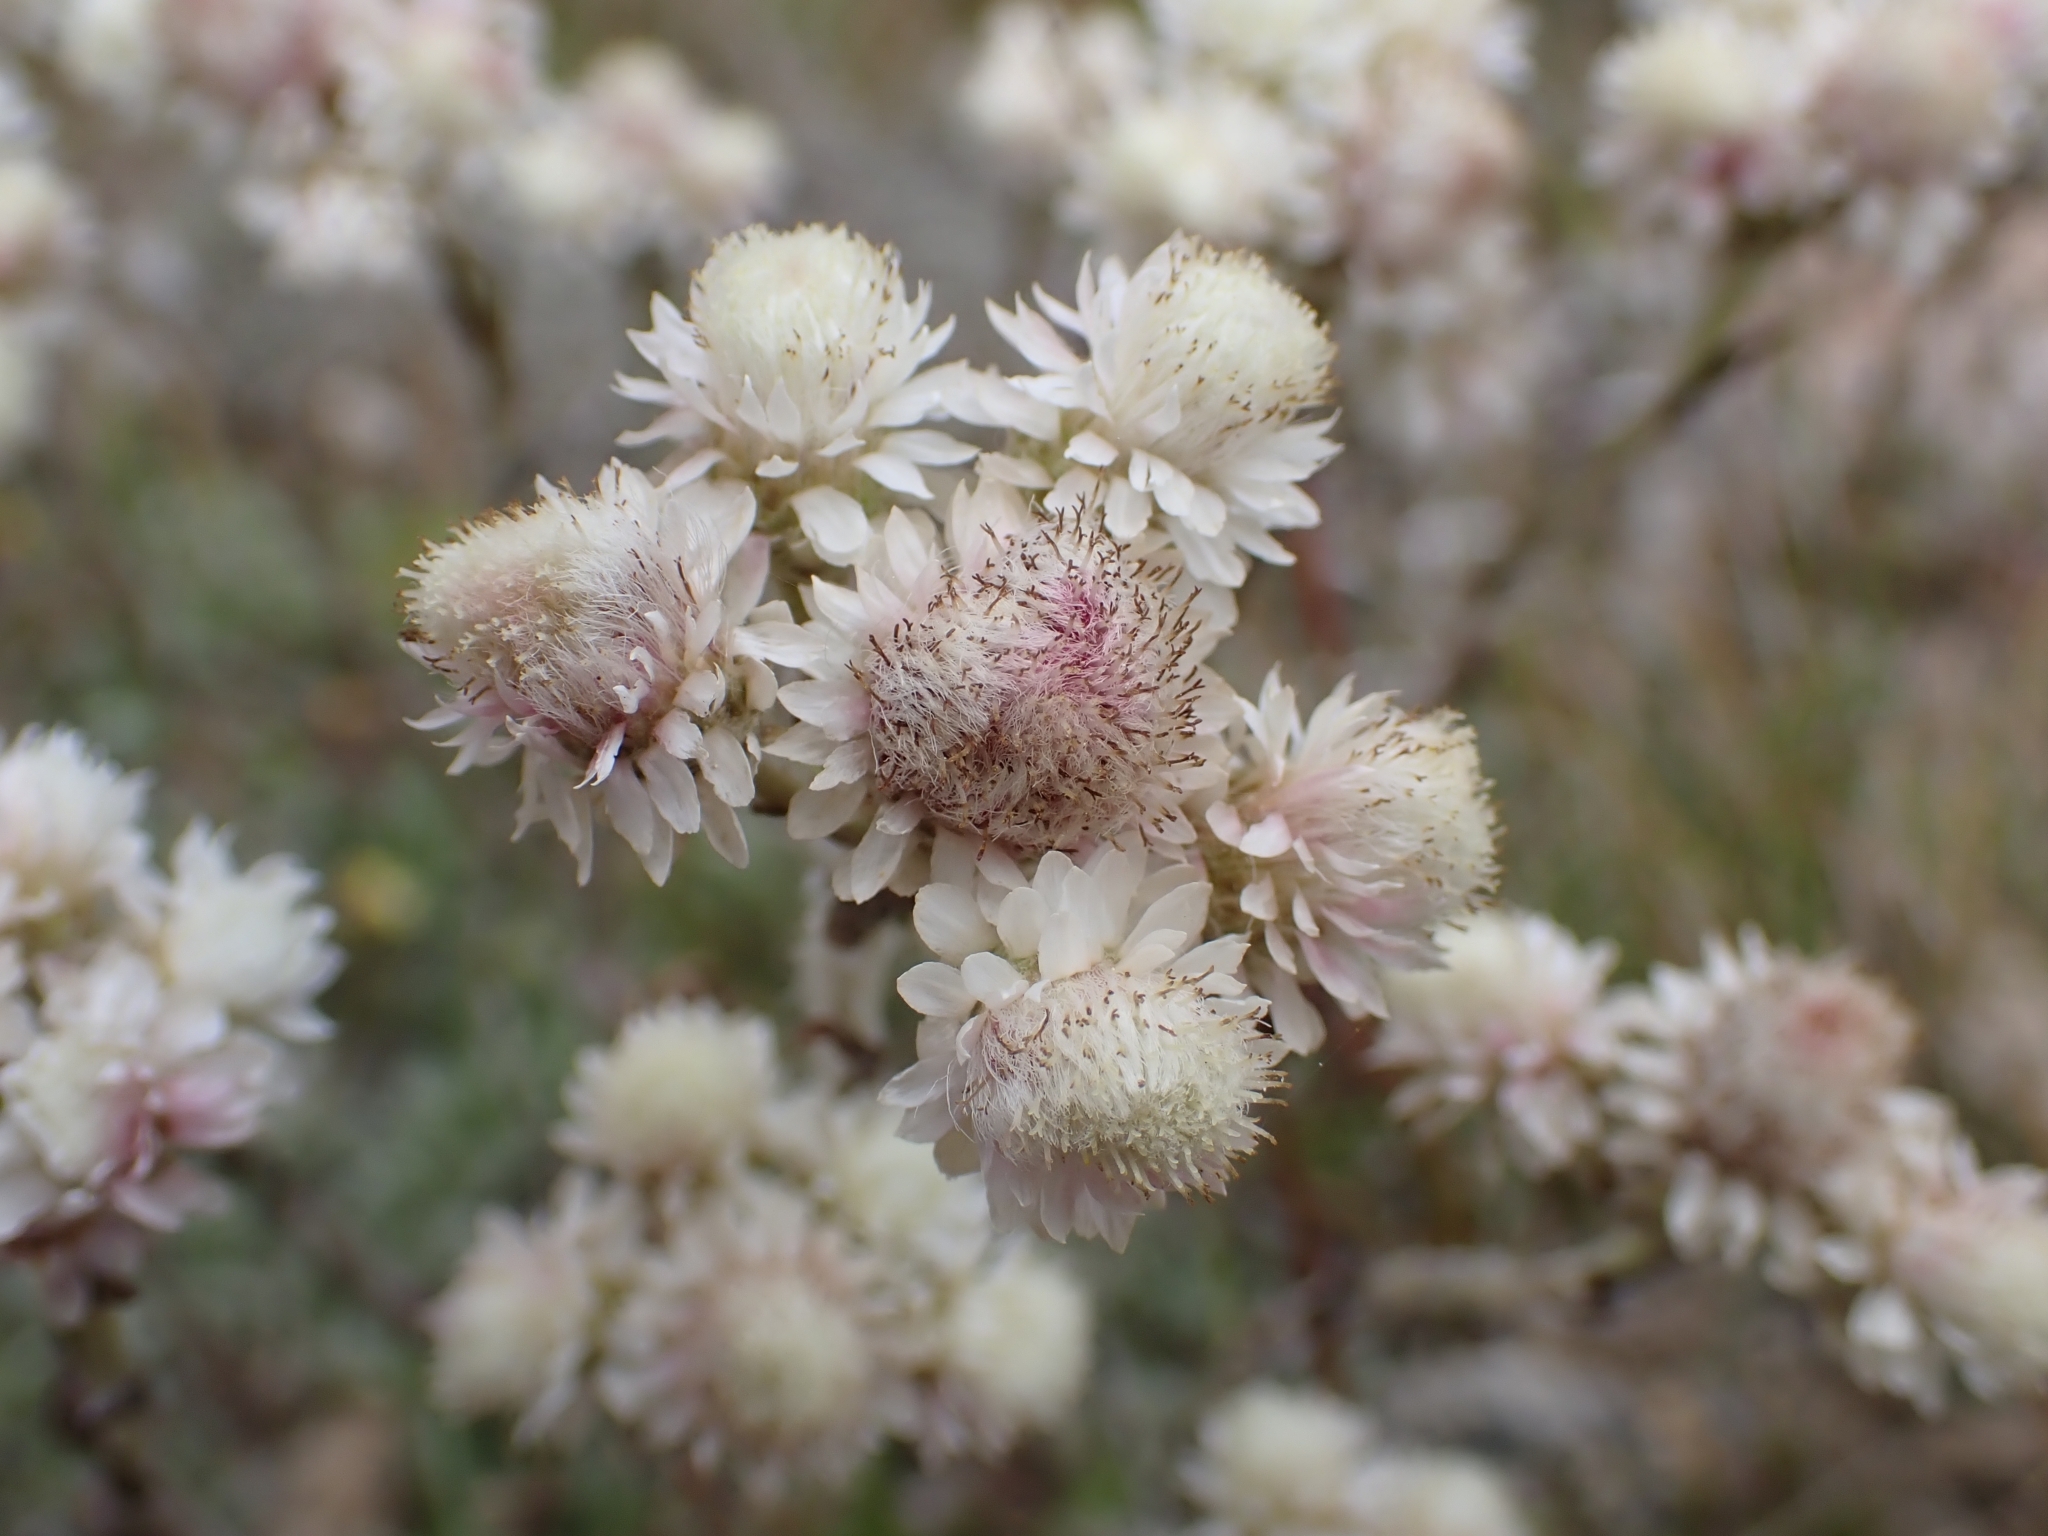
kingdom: Plantae
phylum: Tracheophyta
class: Magnoliopsida
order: Asterales
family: Asteraceae
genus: Antennaria
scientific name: Antennaria dioica
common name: Mountain everlasting
